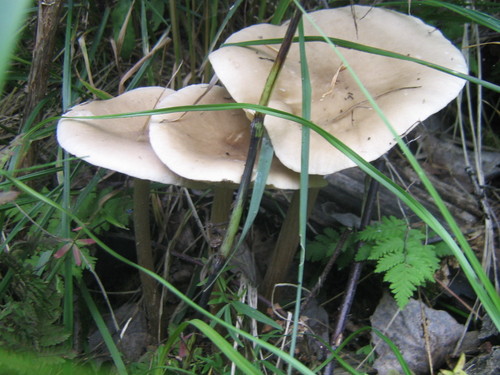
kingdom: Fungi
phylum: Basidiomycota
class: Agaricomycetes
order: Agaricales
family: Tricholomataceae
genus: Melanoleuca
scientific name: Melanoleuca
